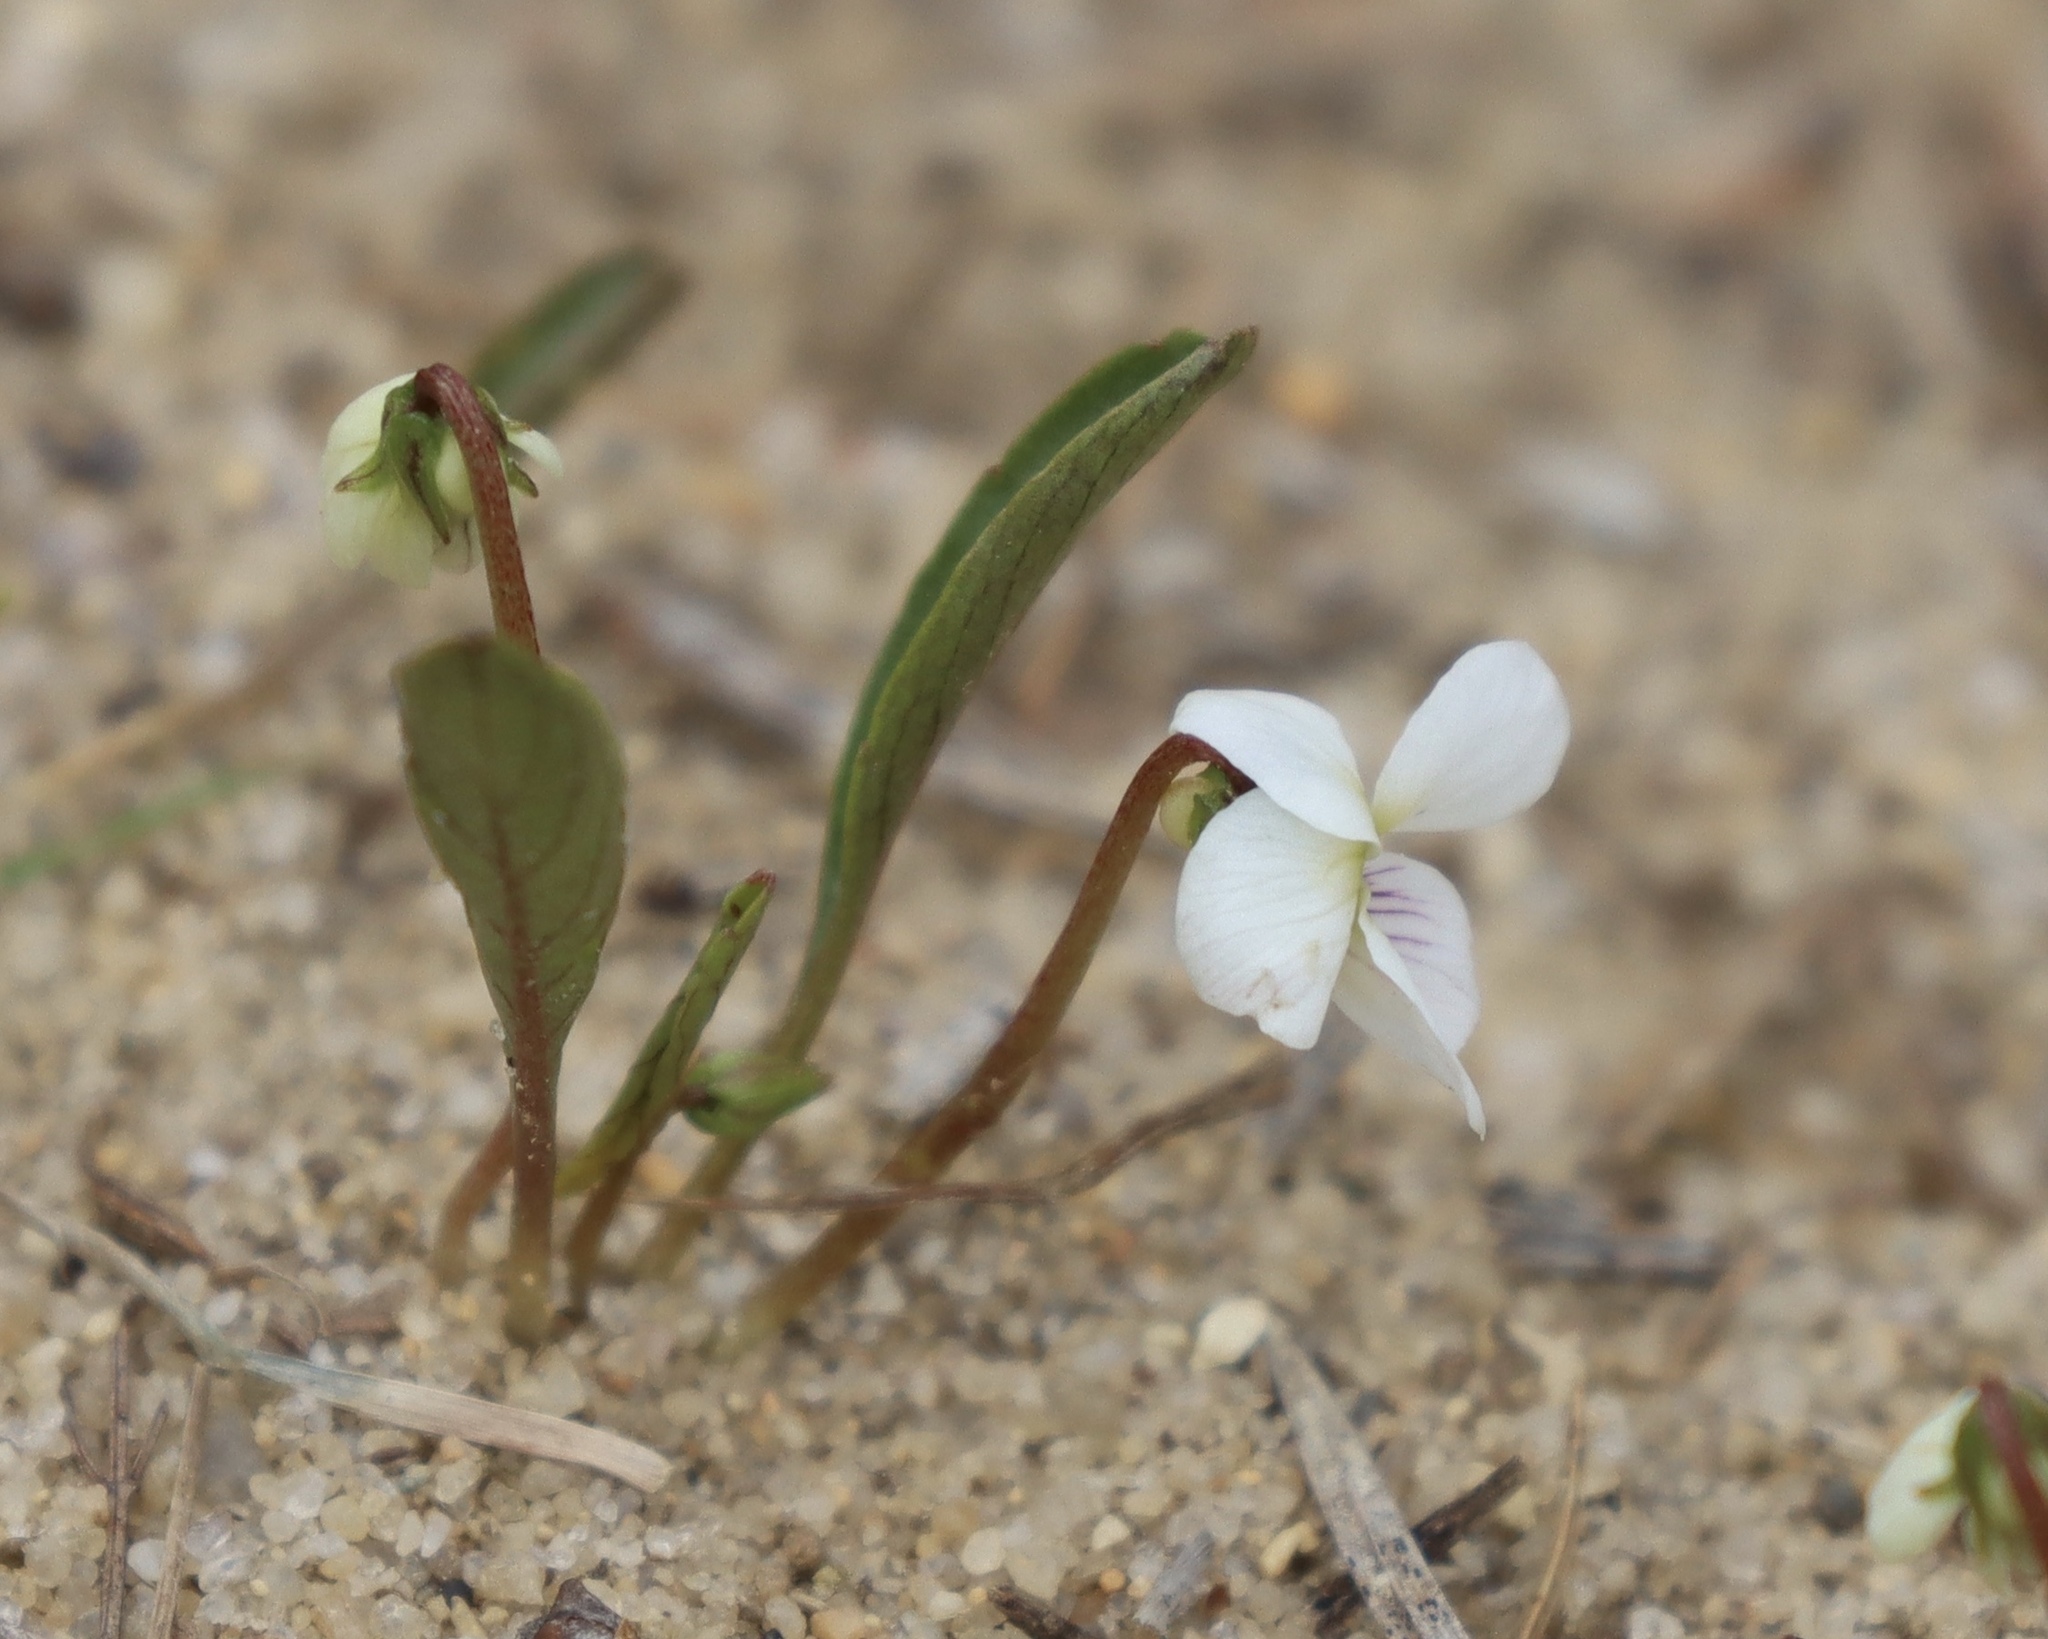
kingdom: Plantae
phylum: Tracheophyta
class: Magnoliopsida
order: Malpighiales
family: Violaceae
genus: Viola
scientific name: Viola lanceolata
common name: Bog white violet
